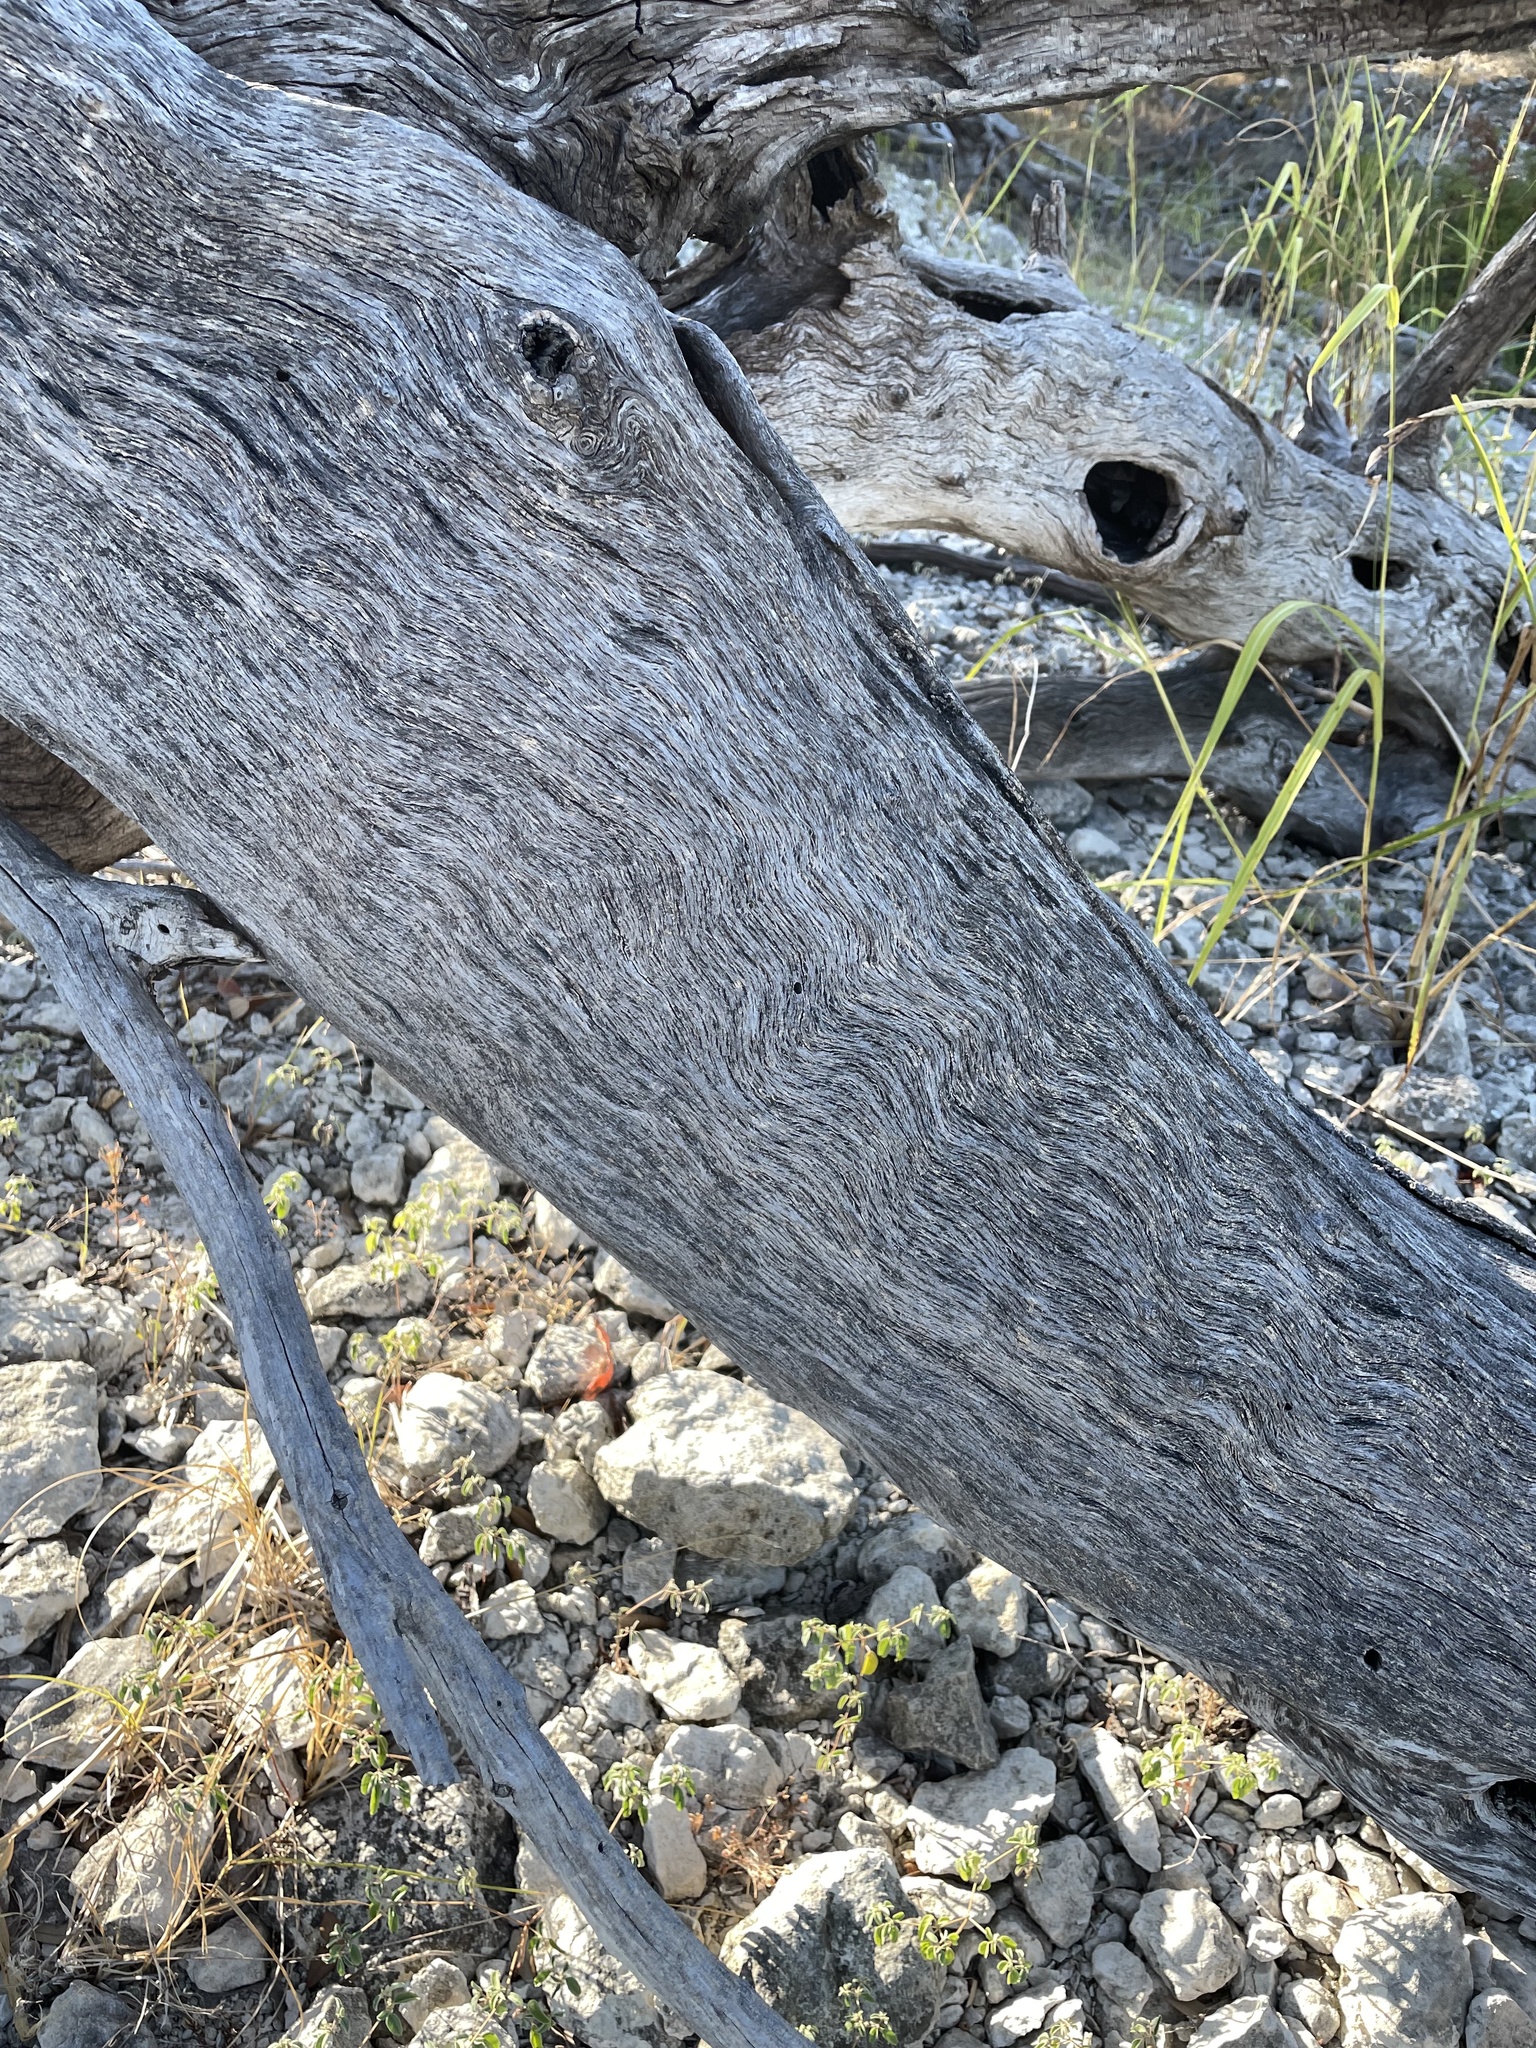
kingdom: Plantae
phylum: Tracheophyta
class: Magnoliopsida
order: Fagales
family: Fagaceae
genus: Quercus
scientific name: Quercus fusiformis
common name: Texas live oak
